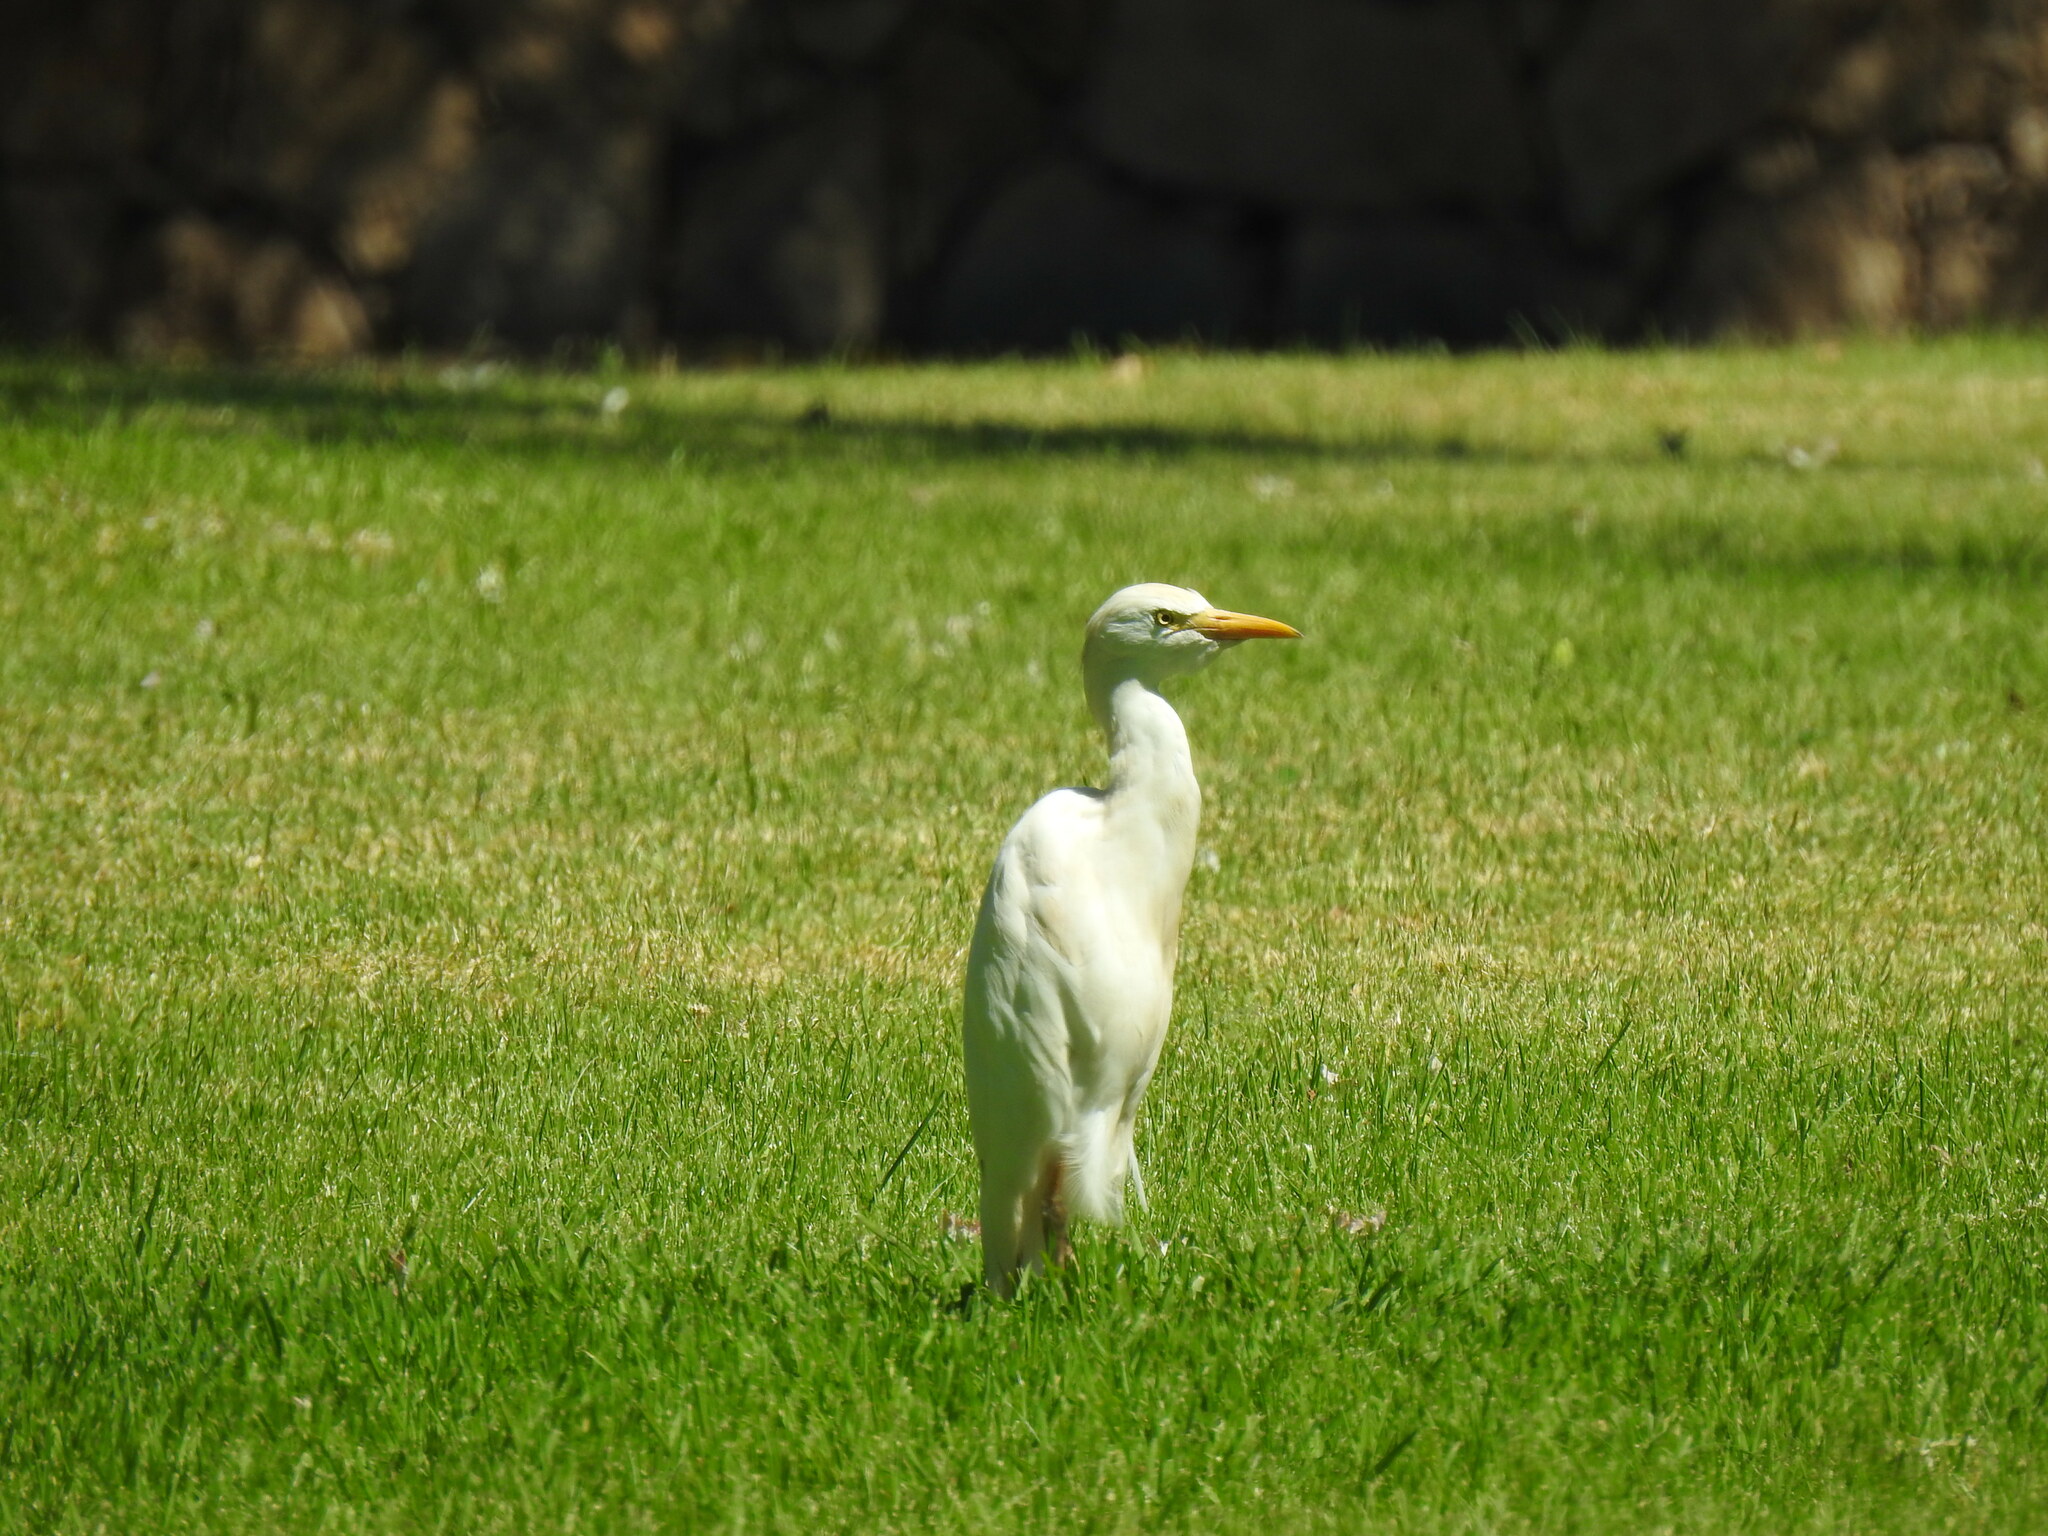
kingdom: Animalia
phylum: Chordata
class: Aves
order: Pelecaniformes
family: Ardeidae
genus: Bubulcus
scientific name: Bubulcus ibis
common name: Cattle egret
